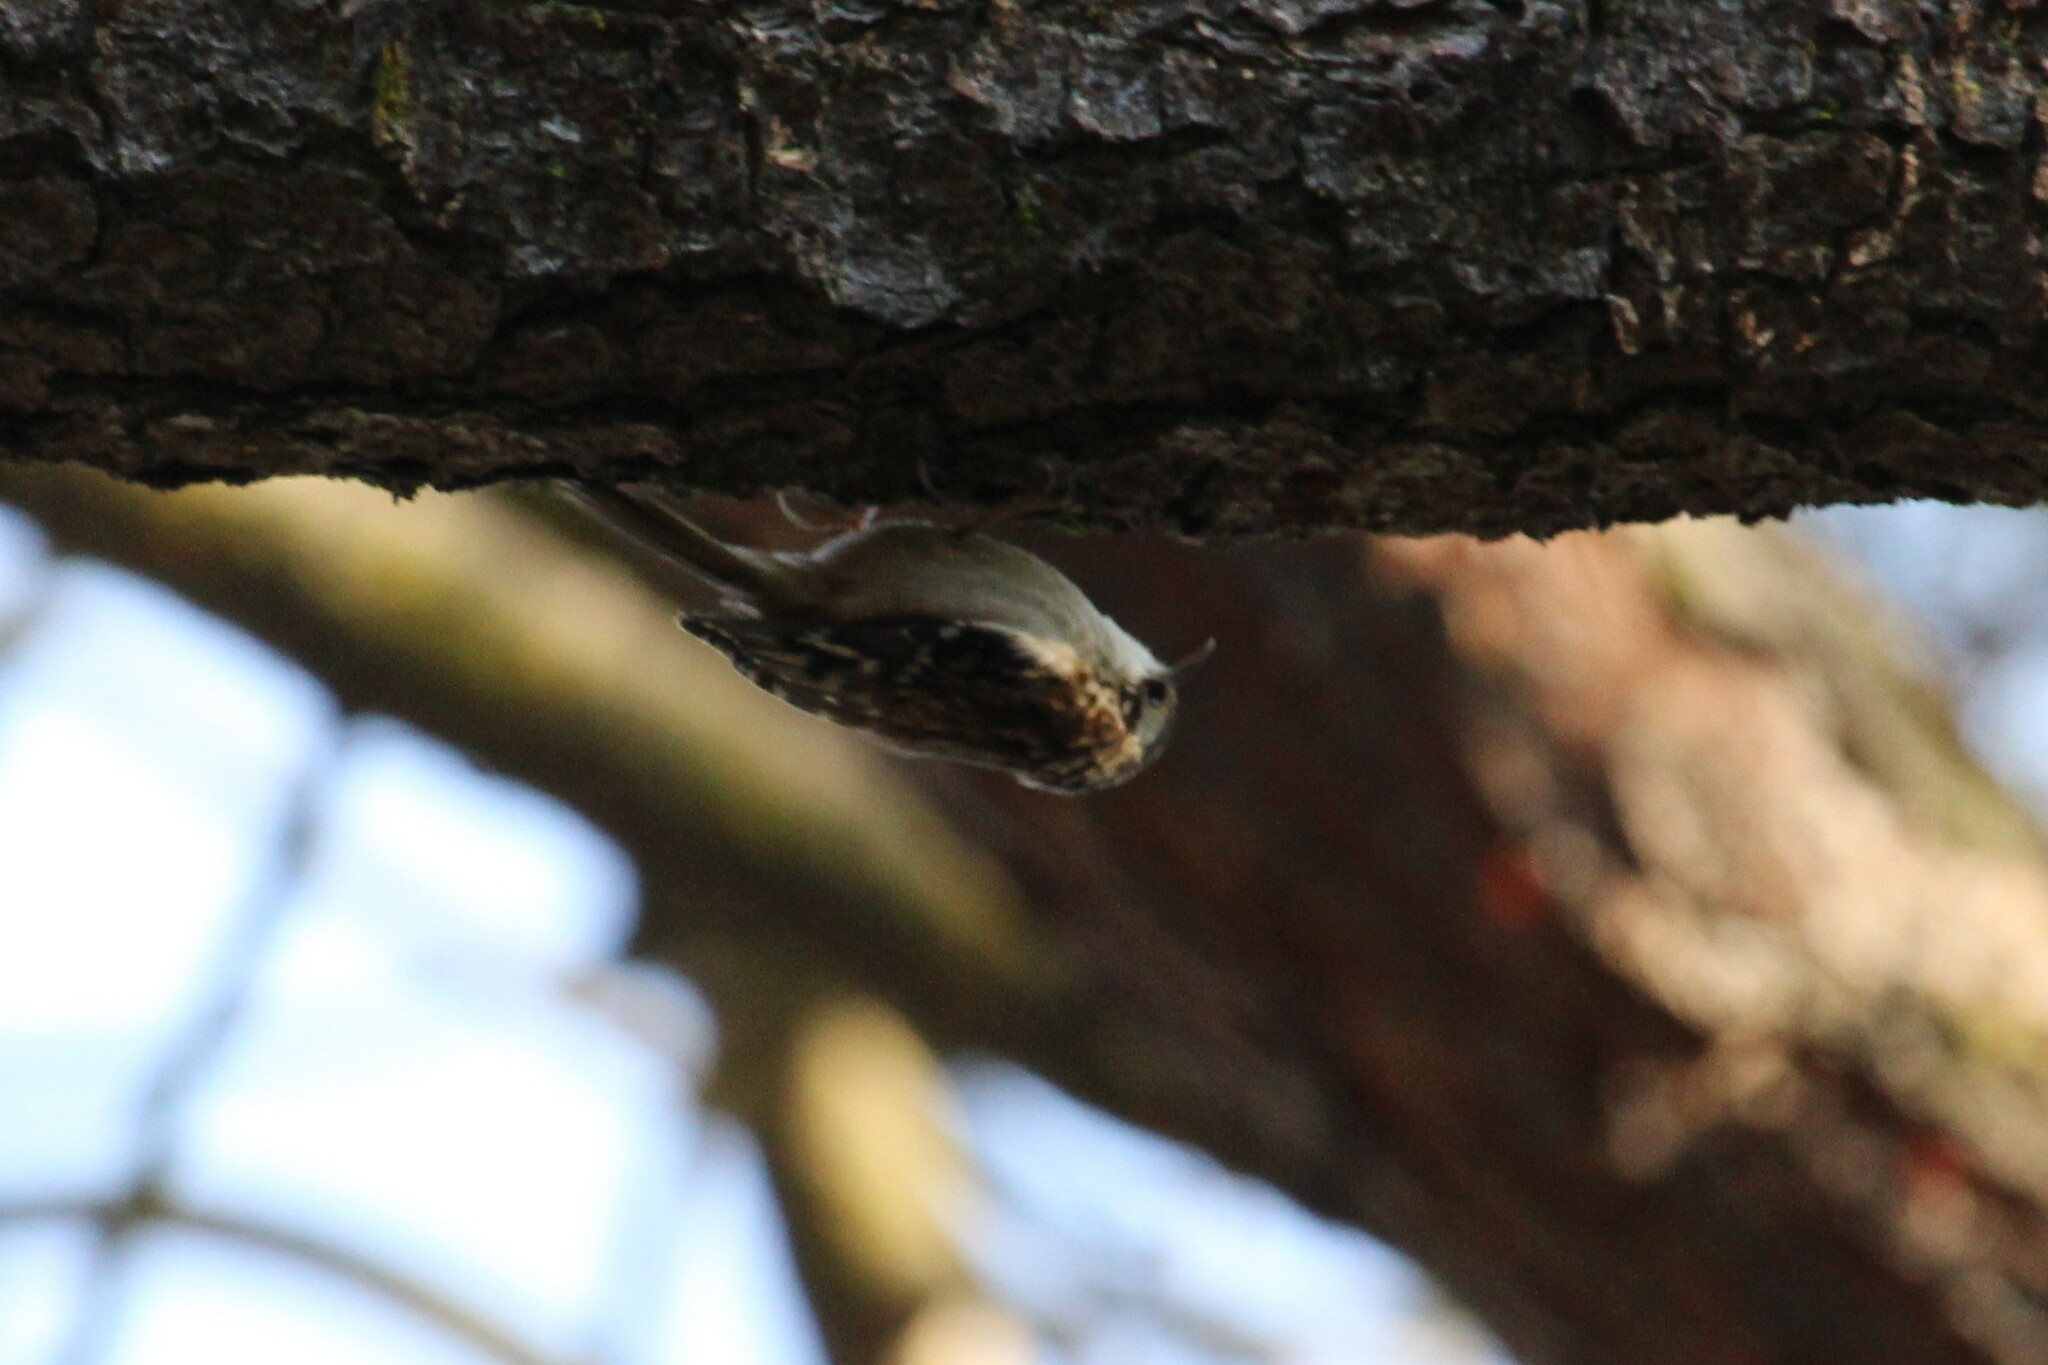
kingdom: Animalia
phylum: Chordata
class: Aves
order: Passeriformes
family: Certhiidae
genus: Certhia
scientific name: Certhia americana
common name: Brown creeper
